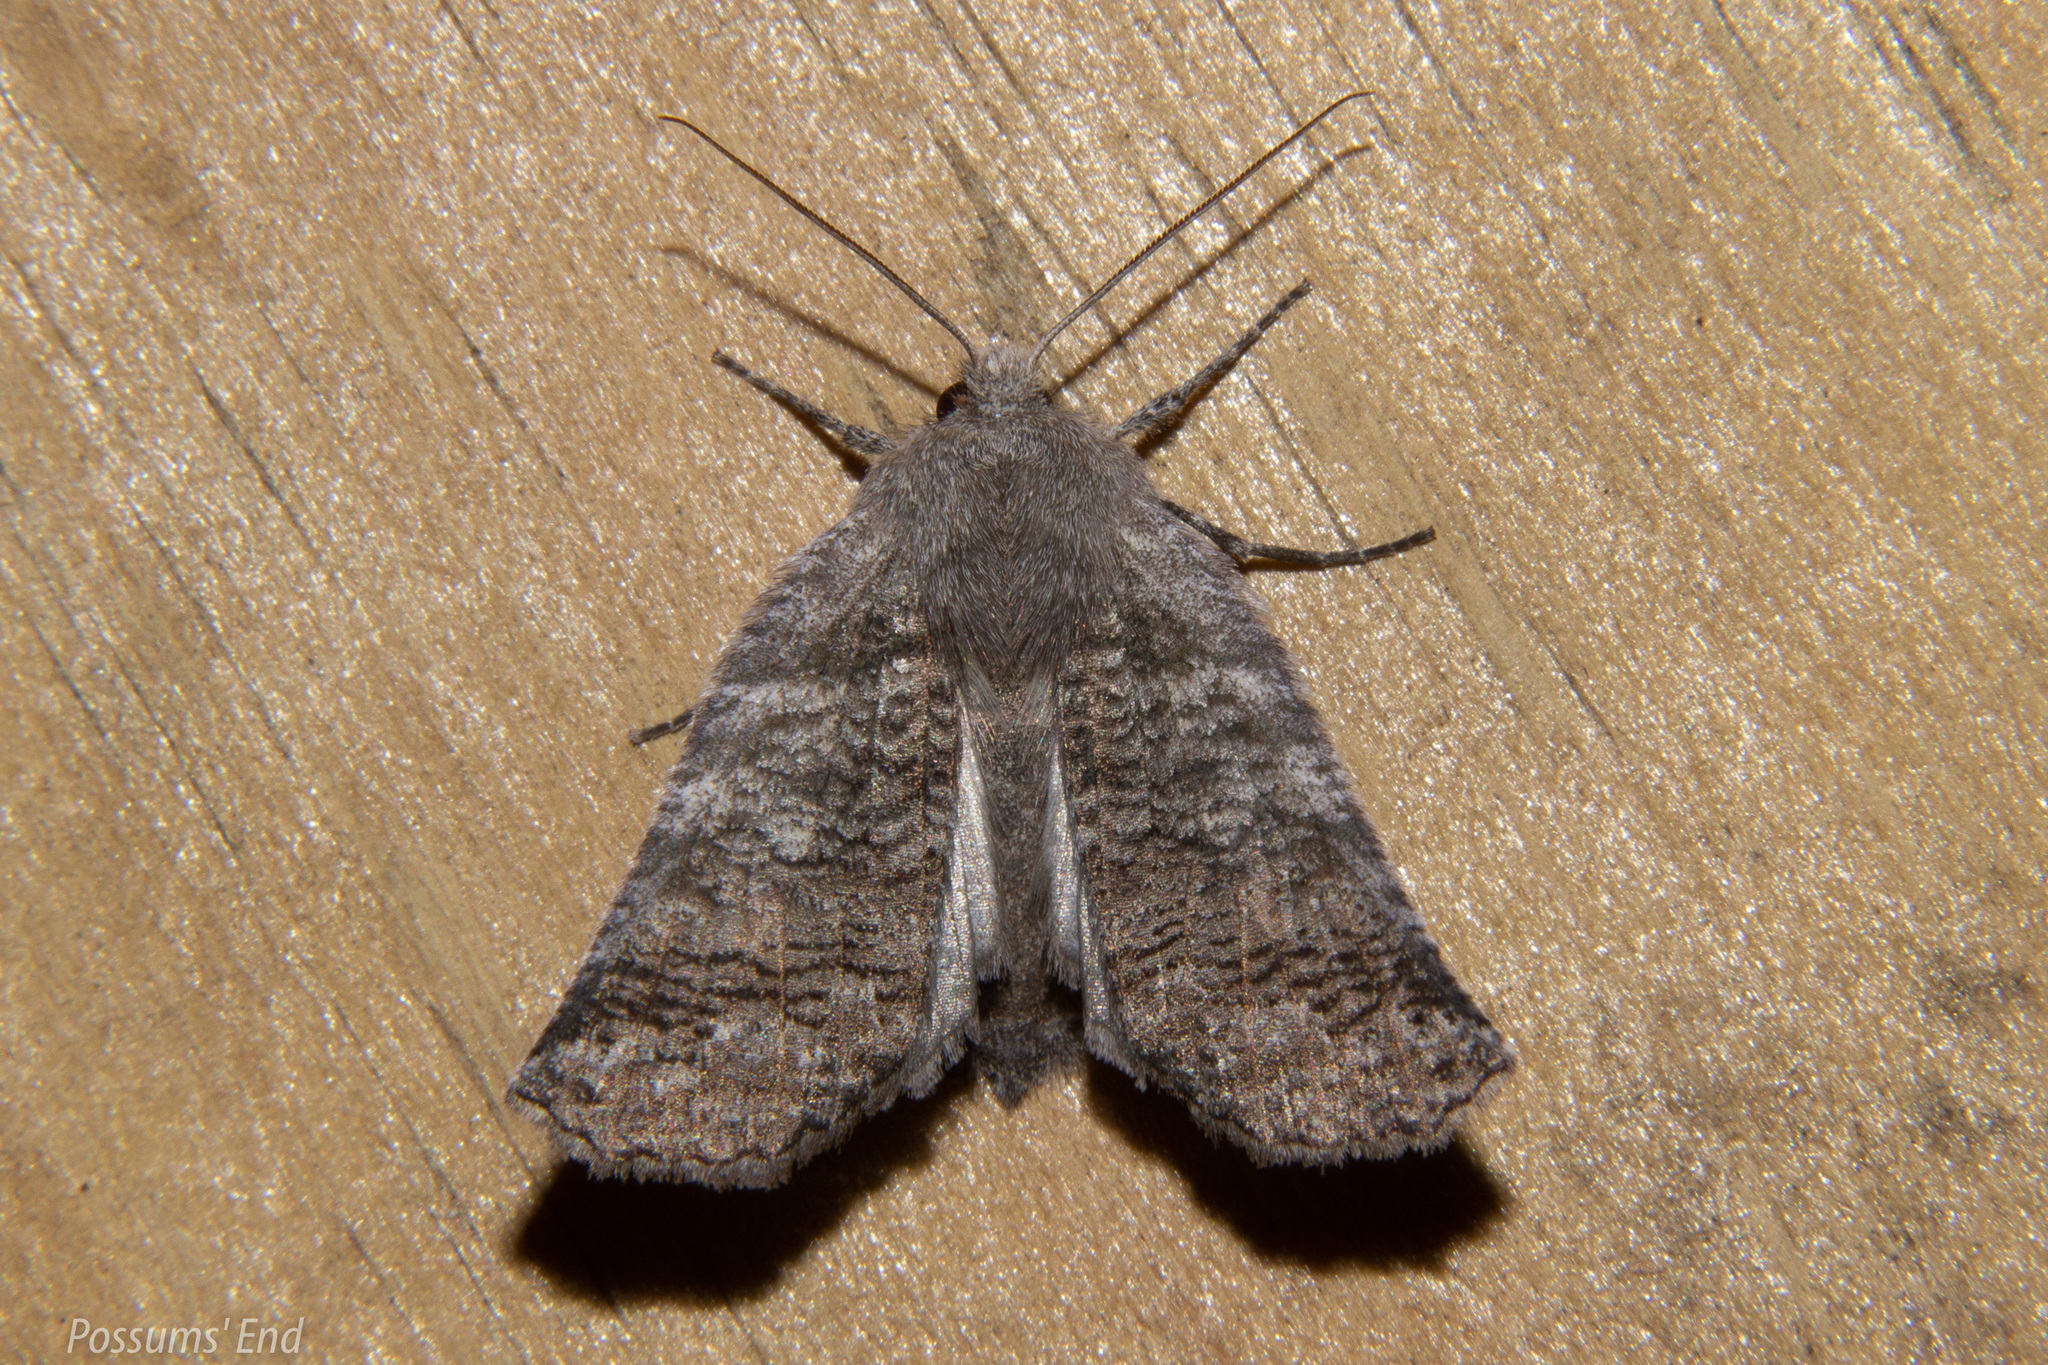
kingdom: Animalia
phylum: Arthropoda
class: Insecta
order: Lepidoptera
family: Geometridae
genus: Declana
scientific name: Declana
